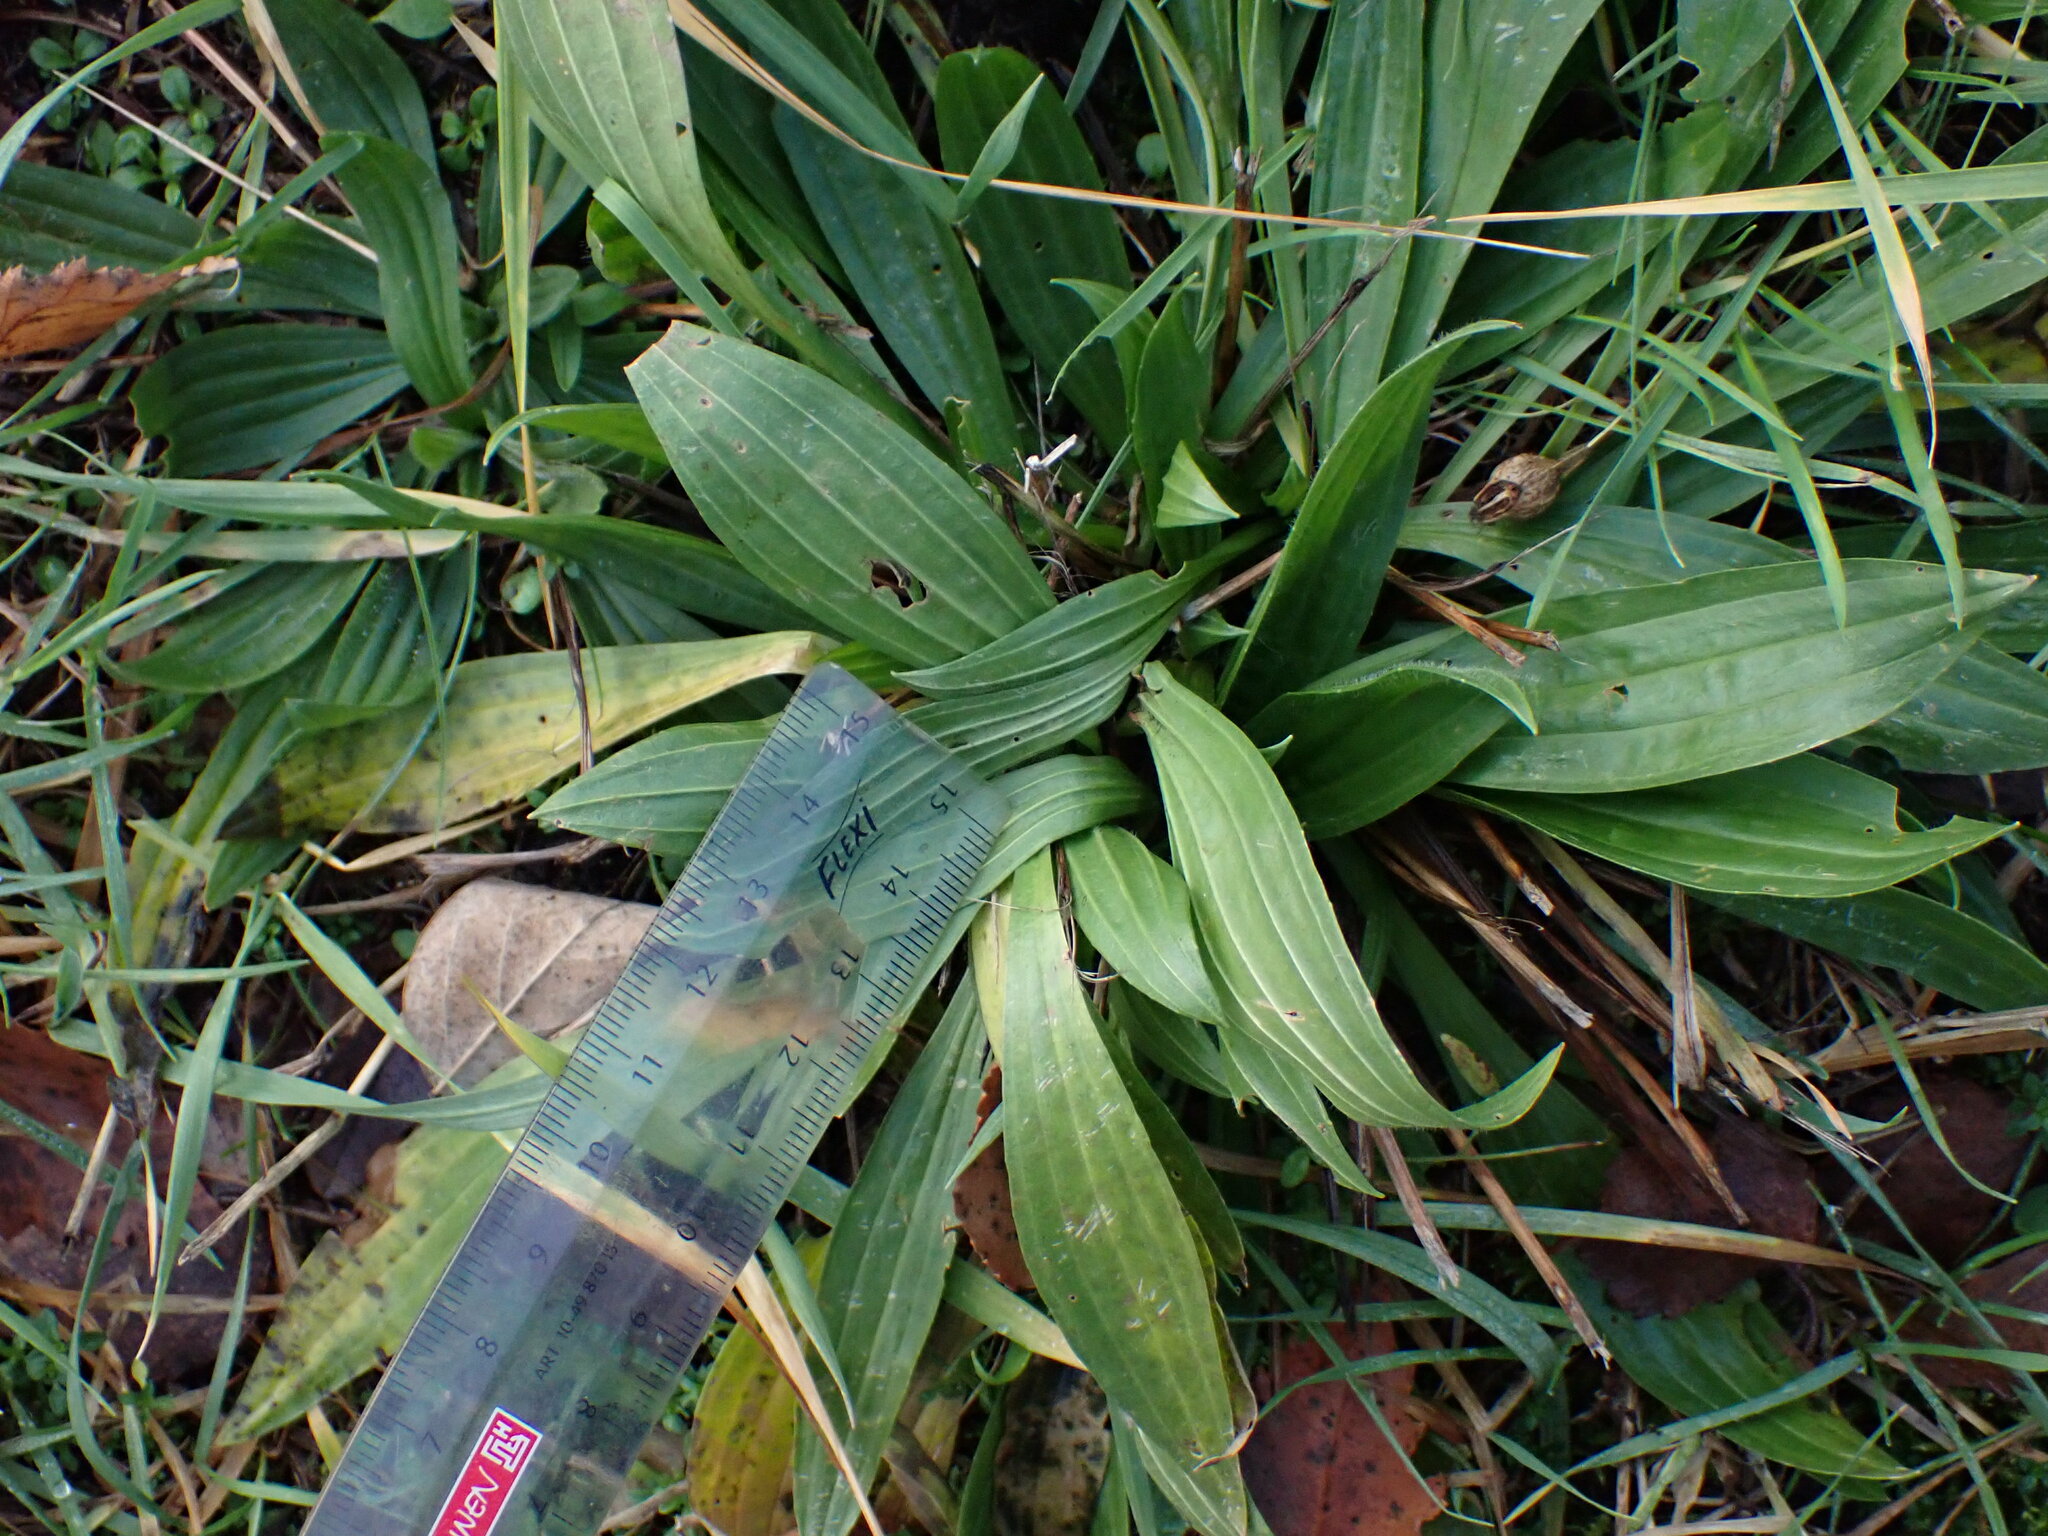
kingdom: Plantae
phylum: Tracheophyta
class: Magnoliopsida
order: Lamiales
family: Plantaginaceae
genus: Plantago
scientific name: Plantago lanceolata
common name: Ribwort plantain
